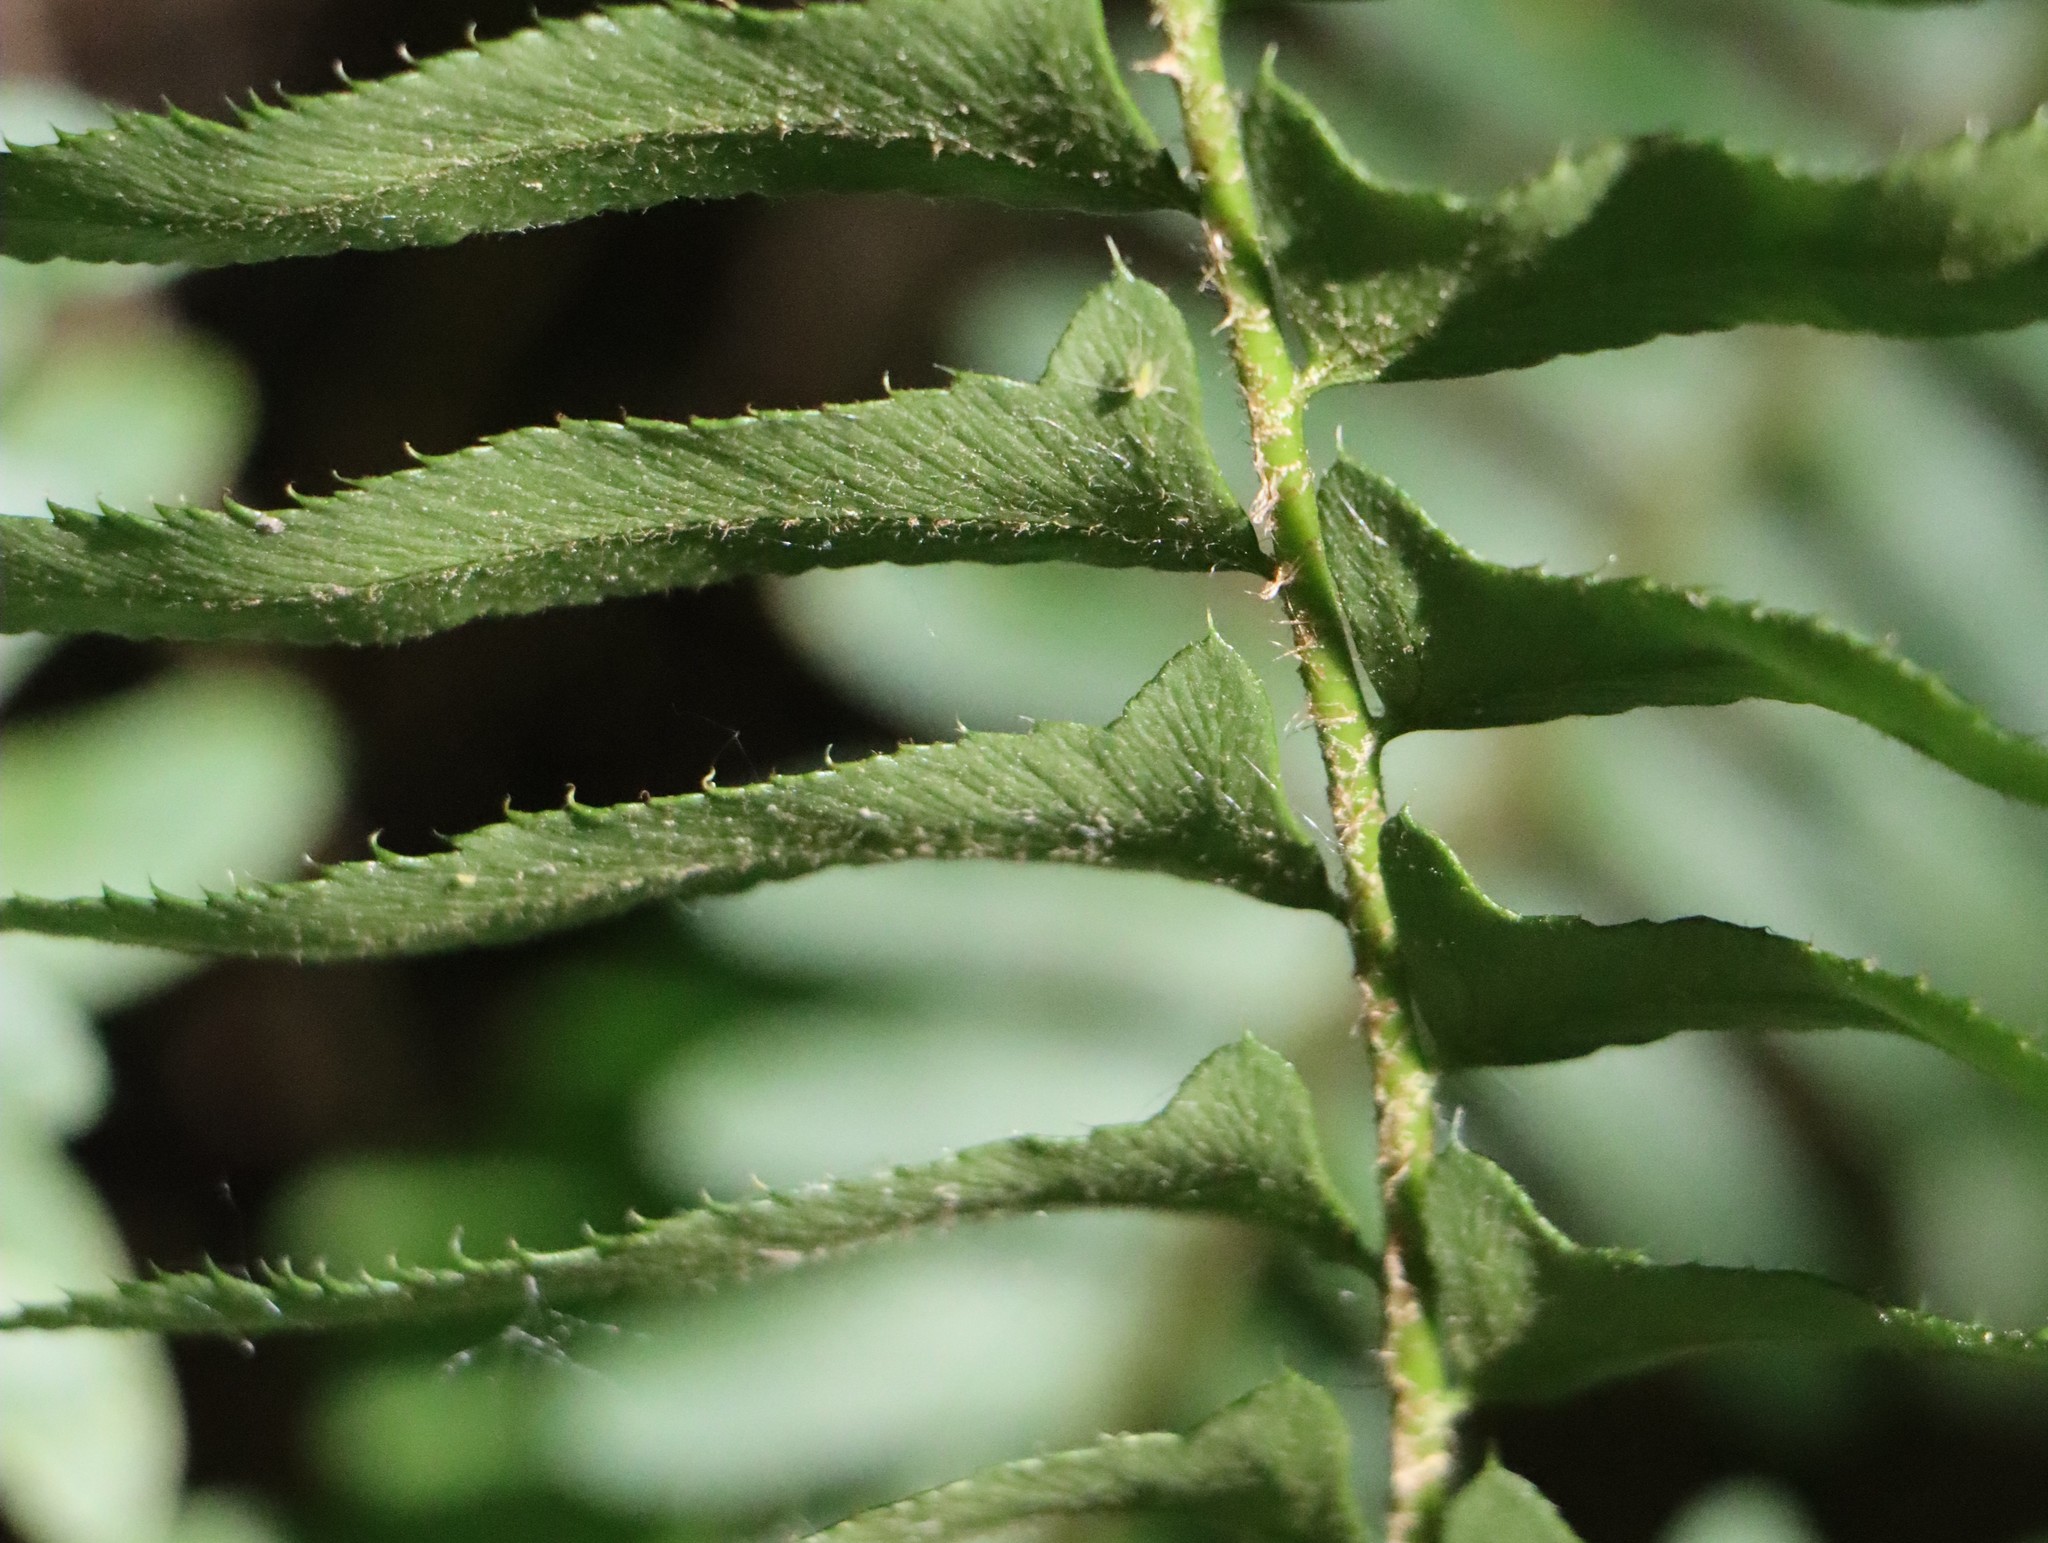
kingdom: Plantae
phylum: Tracheophyta
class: Polypodiopsida
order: Polypodiales
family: Dryopteridaceae
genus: Polystichum
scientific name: Polystichum acrostichoides
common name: Christmas fern
